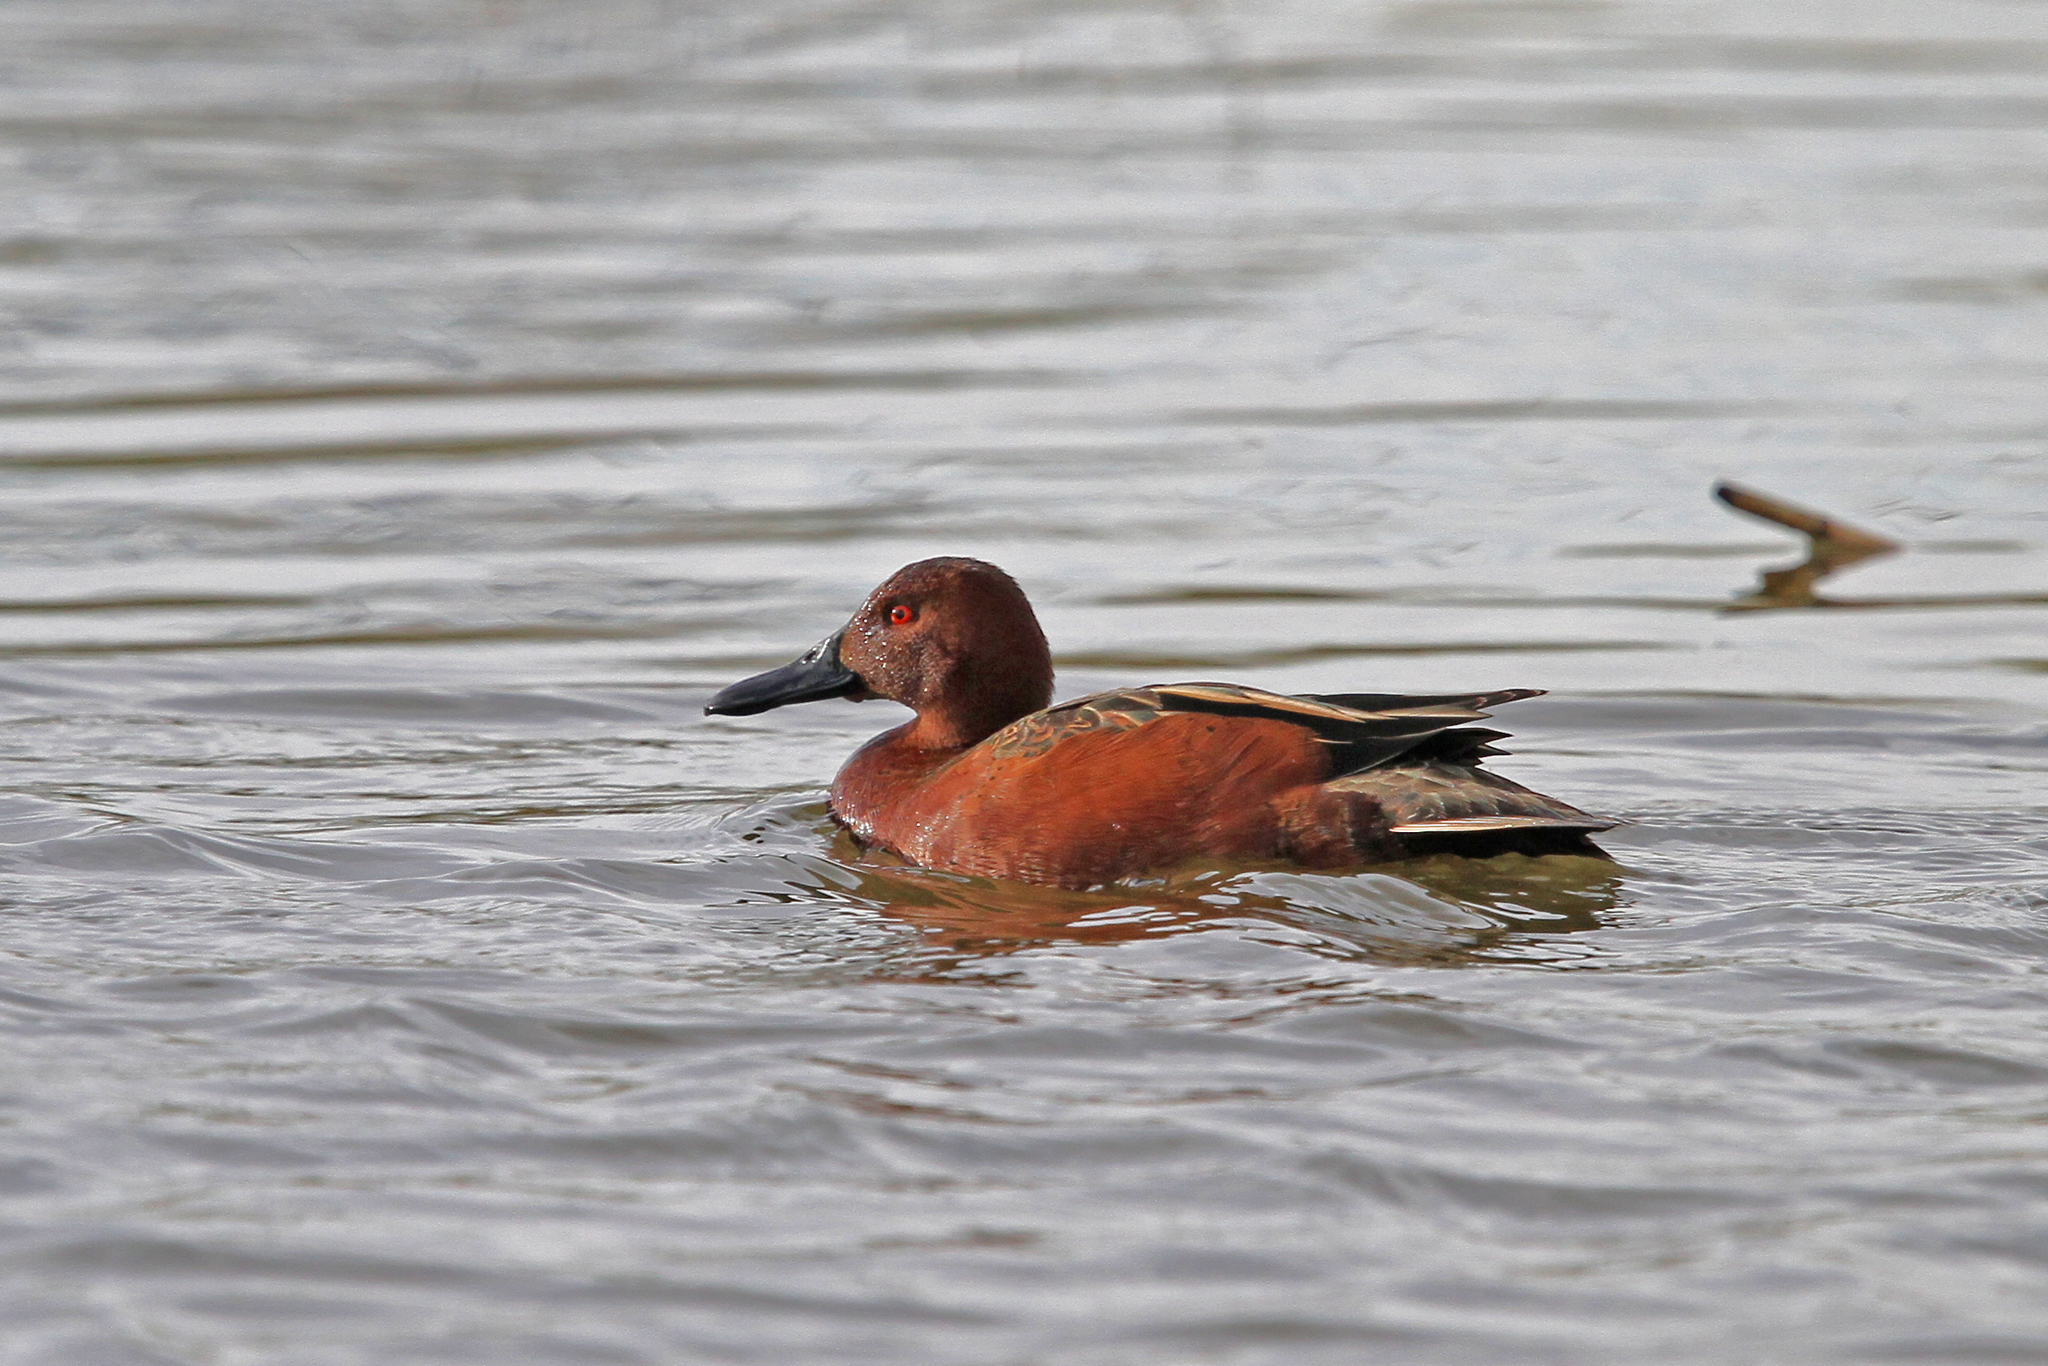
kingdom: Animalia
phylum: Chordata
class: Aves
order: Anseriformes
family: Anatidae
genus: Spatula
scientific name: Spatula cyanoptera
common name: Cinnamon teal
